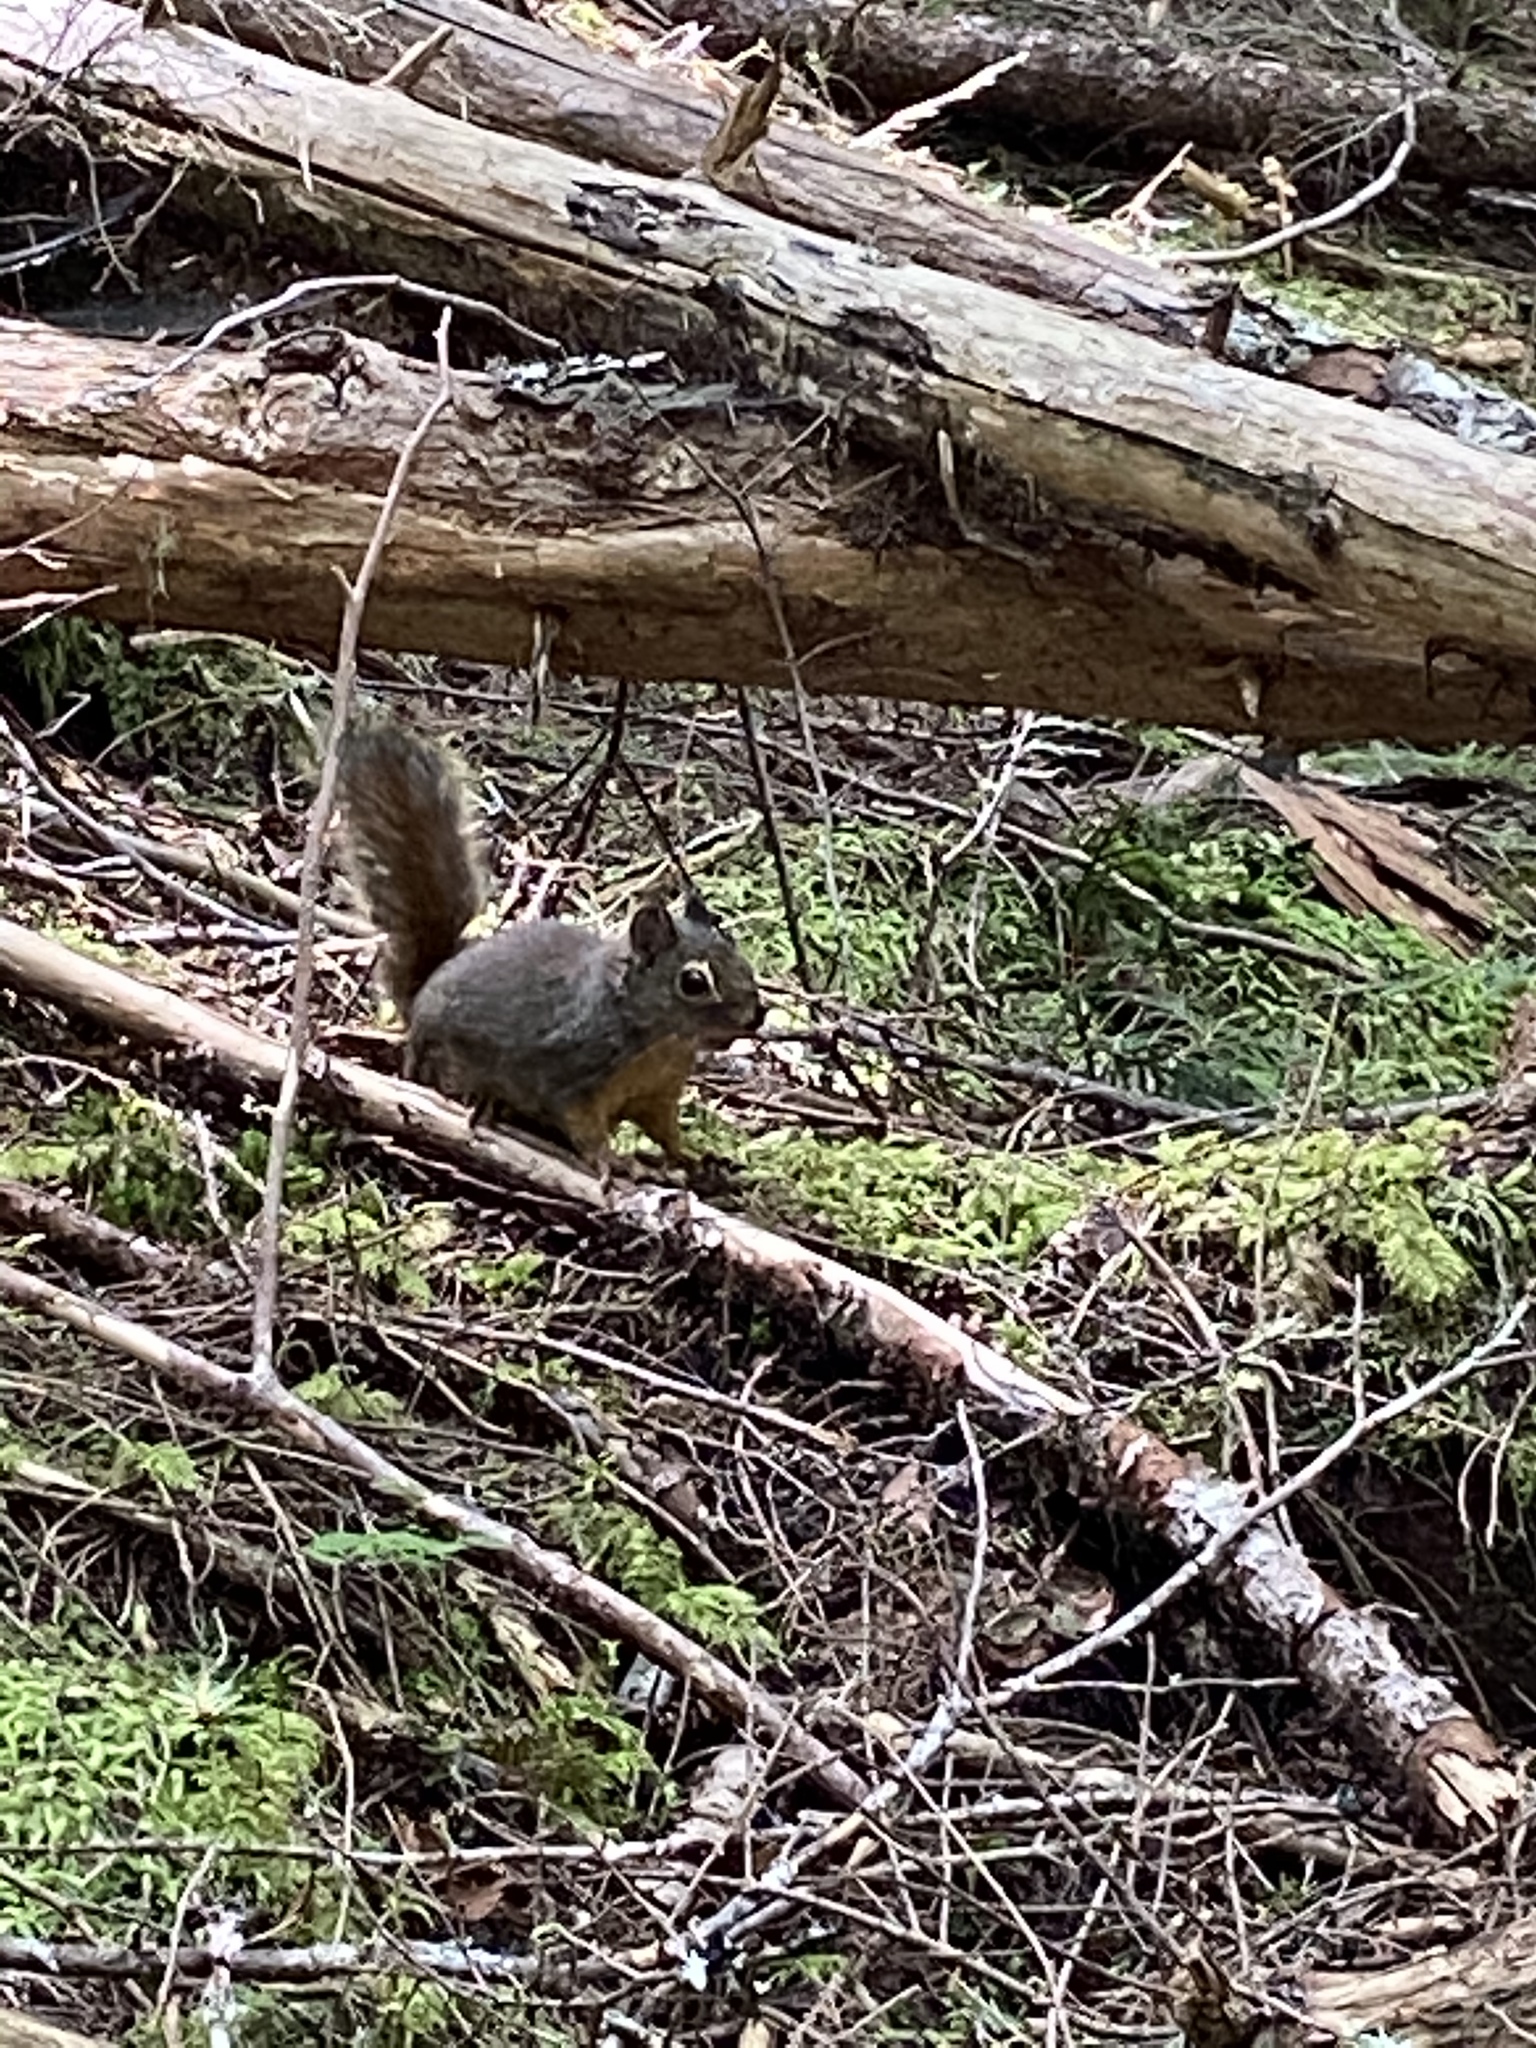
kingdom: Animalia
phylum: Chordata
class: Mammalia
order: Rodentia
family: Sciuridae
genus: Tamiasciurus
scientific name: Tamiasciurus douglasii
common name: Douglas's squirrel
